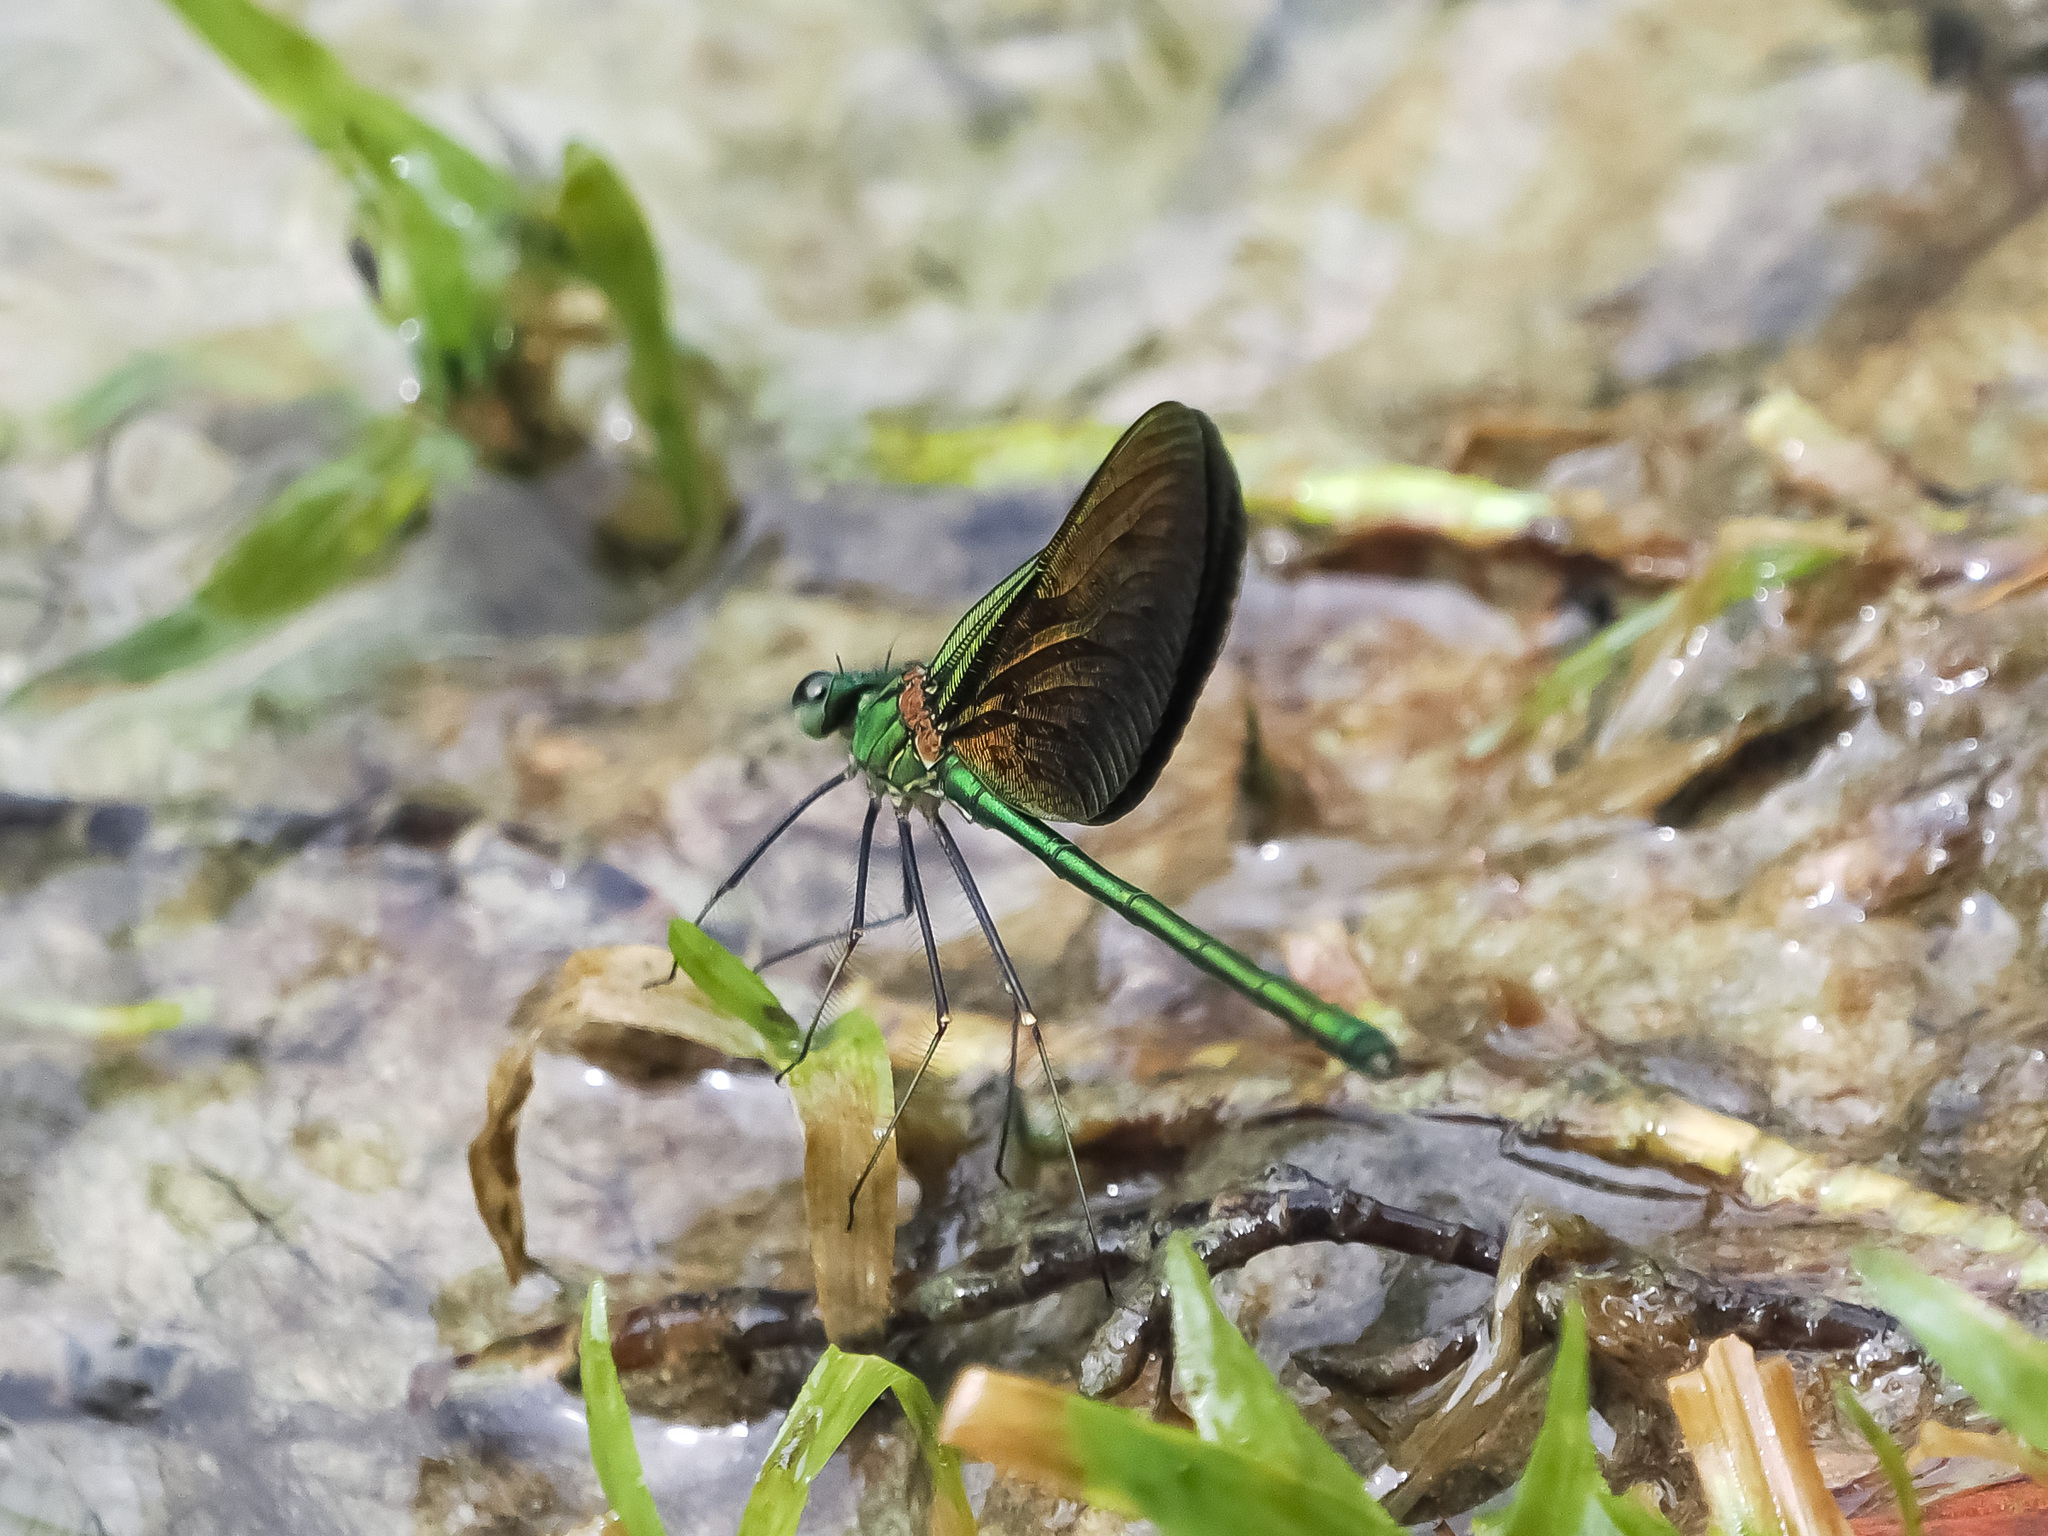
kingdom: Animalia
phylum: Arthropoda
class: Insecta
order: Odonata
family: Calopterygidae
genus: Neurobasis
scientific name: Neurobasis chinensis
